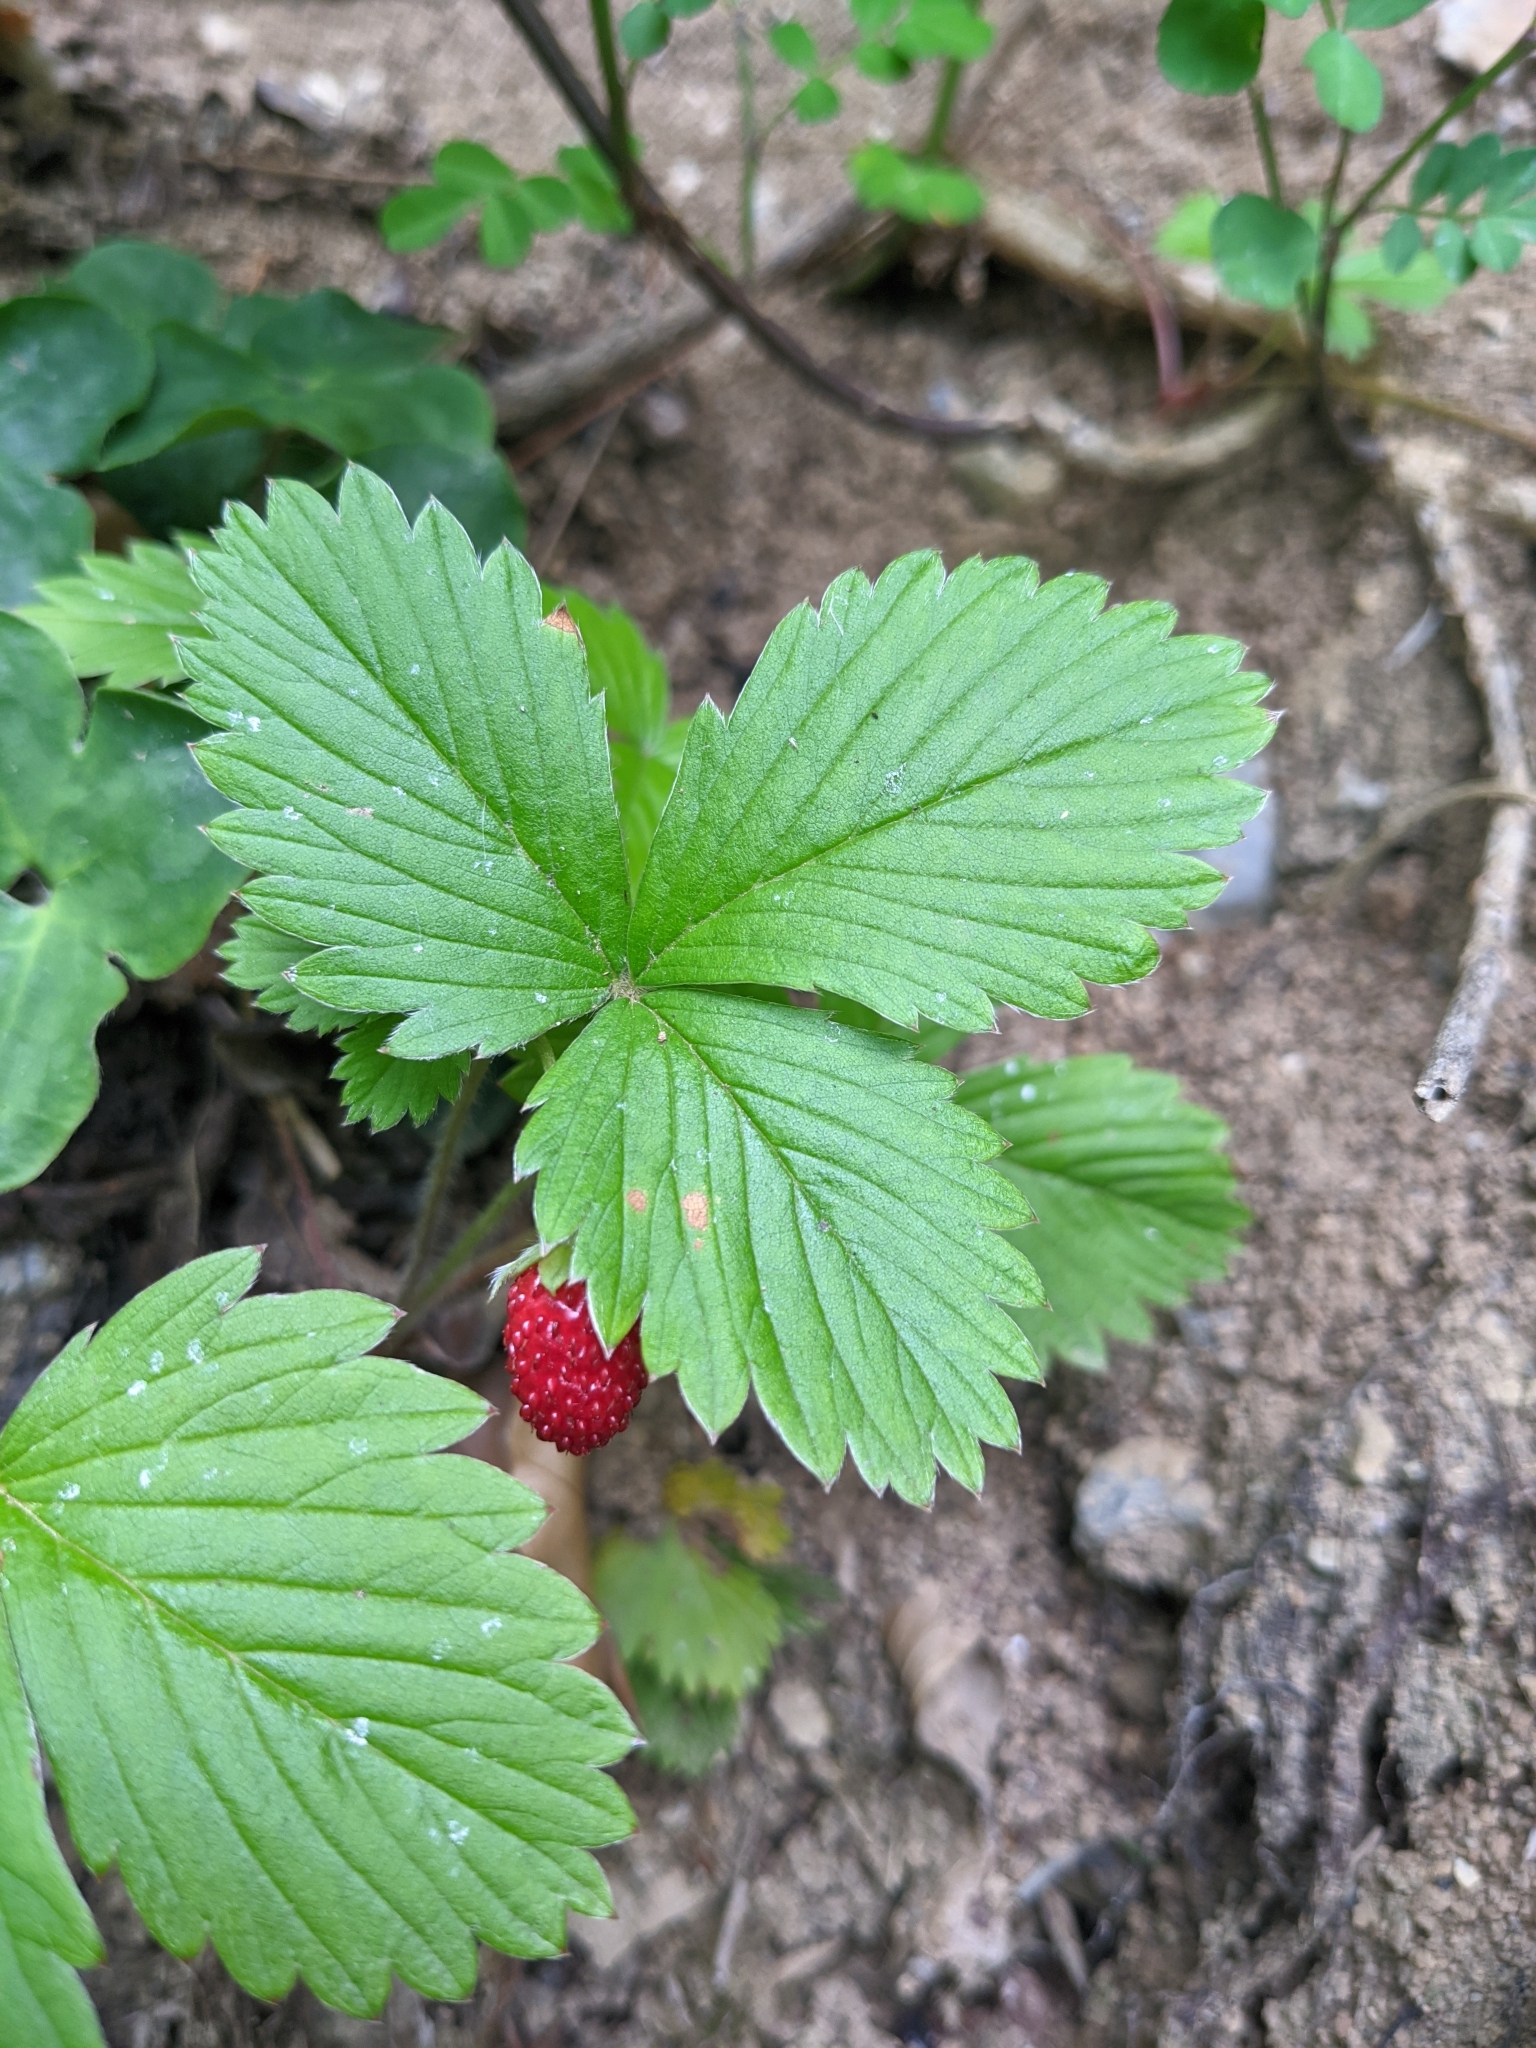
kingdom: Plantae
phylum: Tracheophyta
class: Magnoliopsida
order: Rosales
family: Rosaceae
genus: Fragaria
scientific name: Fragaria vesca
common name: Wild strawberry
